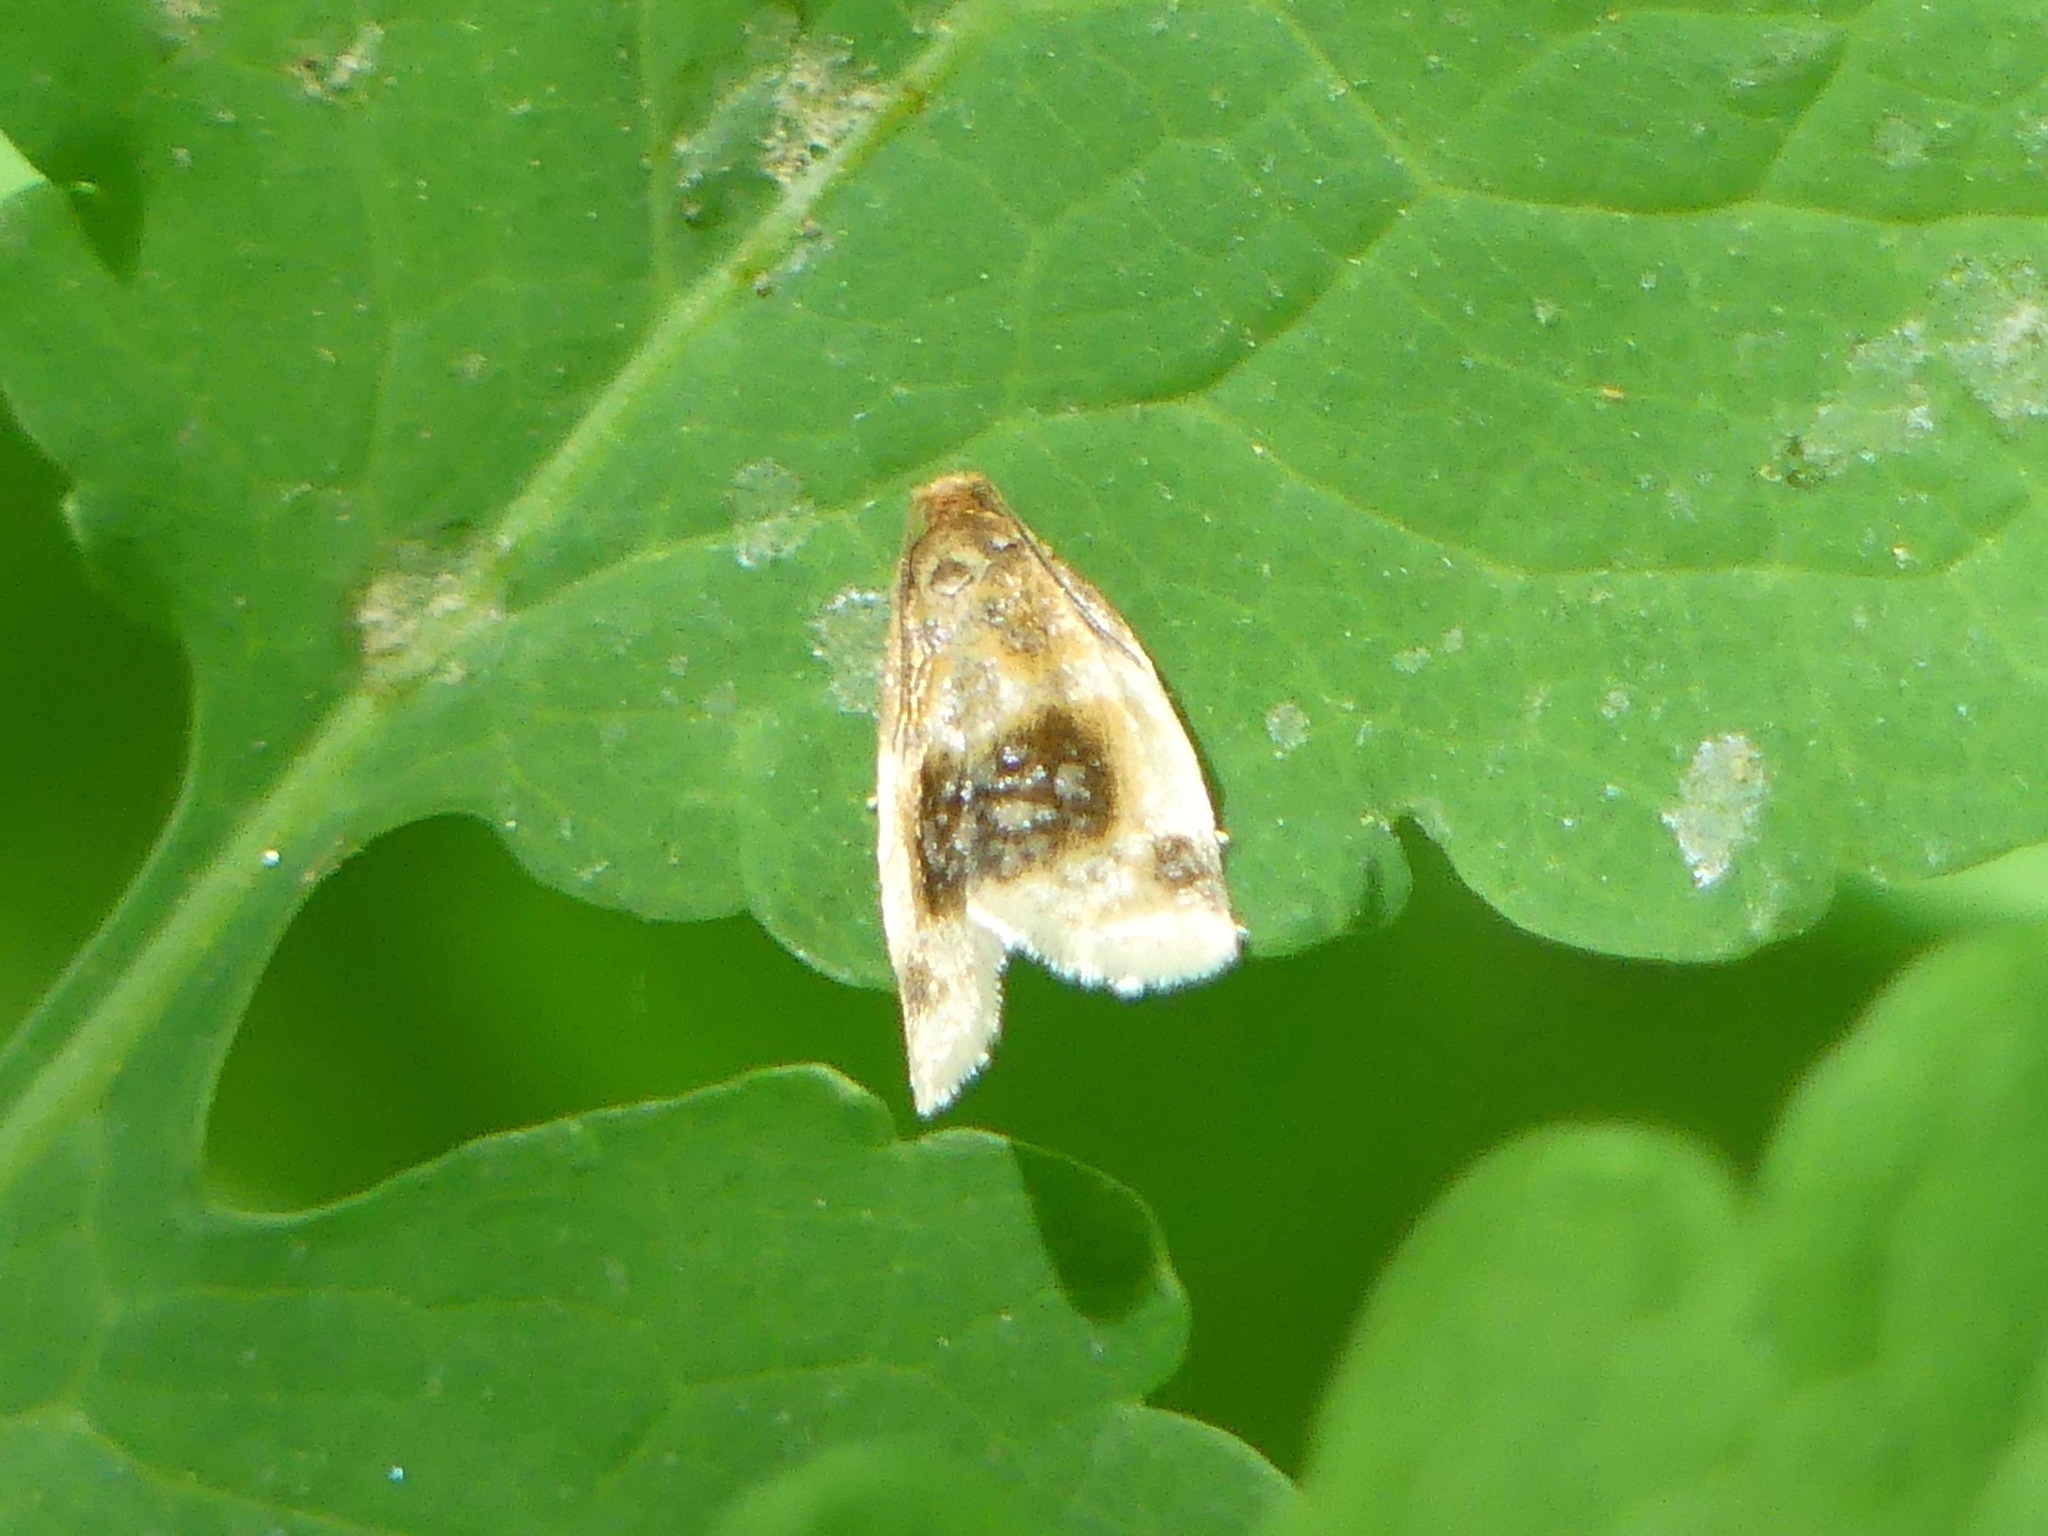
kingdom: Animalia
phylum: Arthropoda
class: Insecta
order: Lepidoptera
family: Tortricidae
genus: Clepsis
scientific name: Clepsis melaleucanus
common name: American apple tortrix
